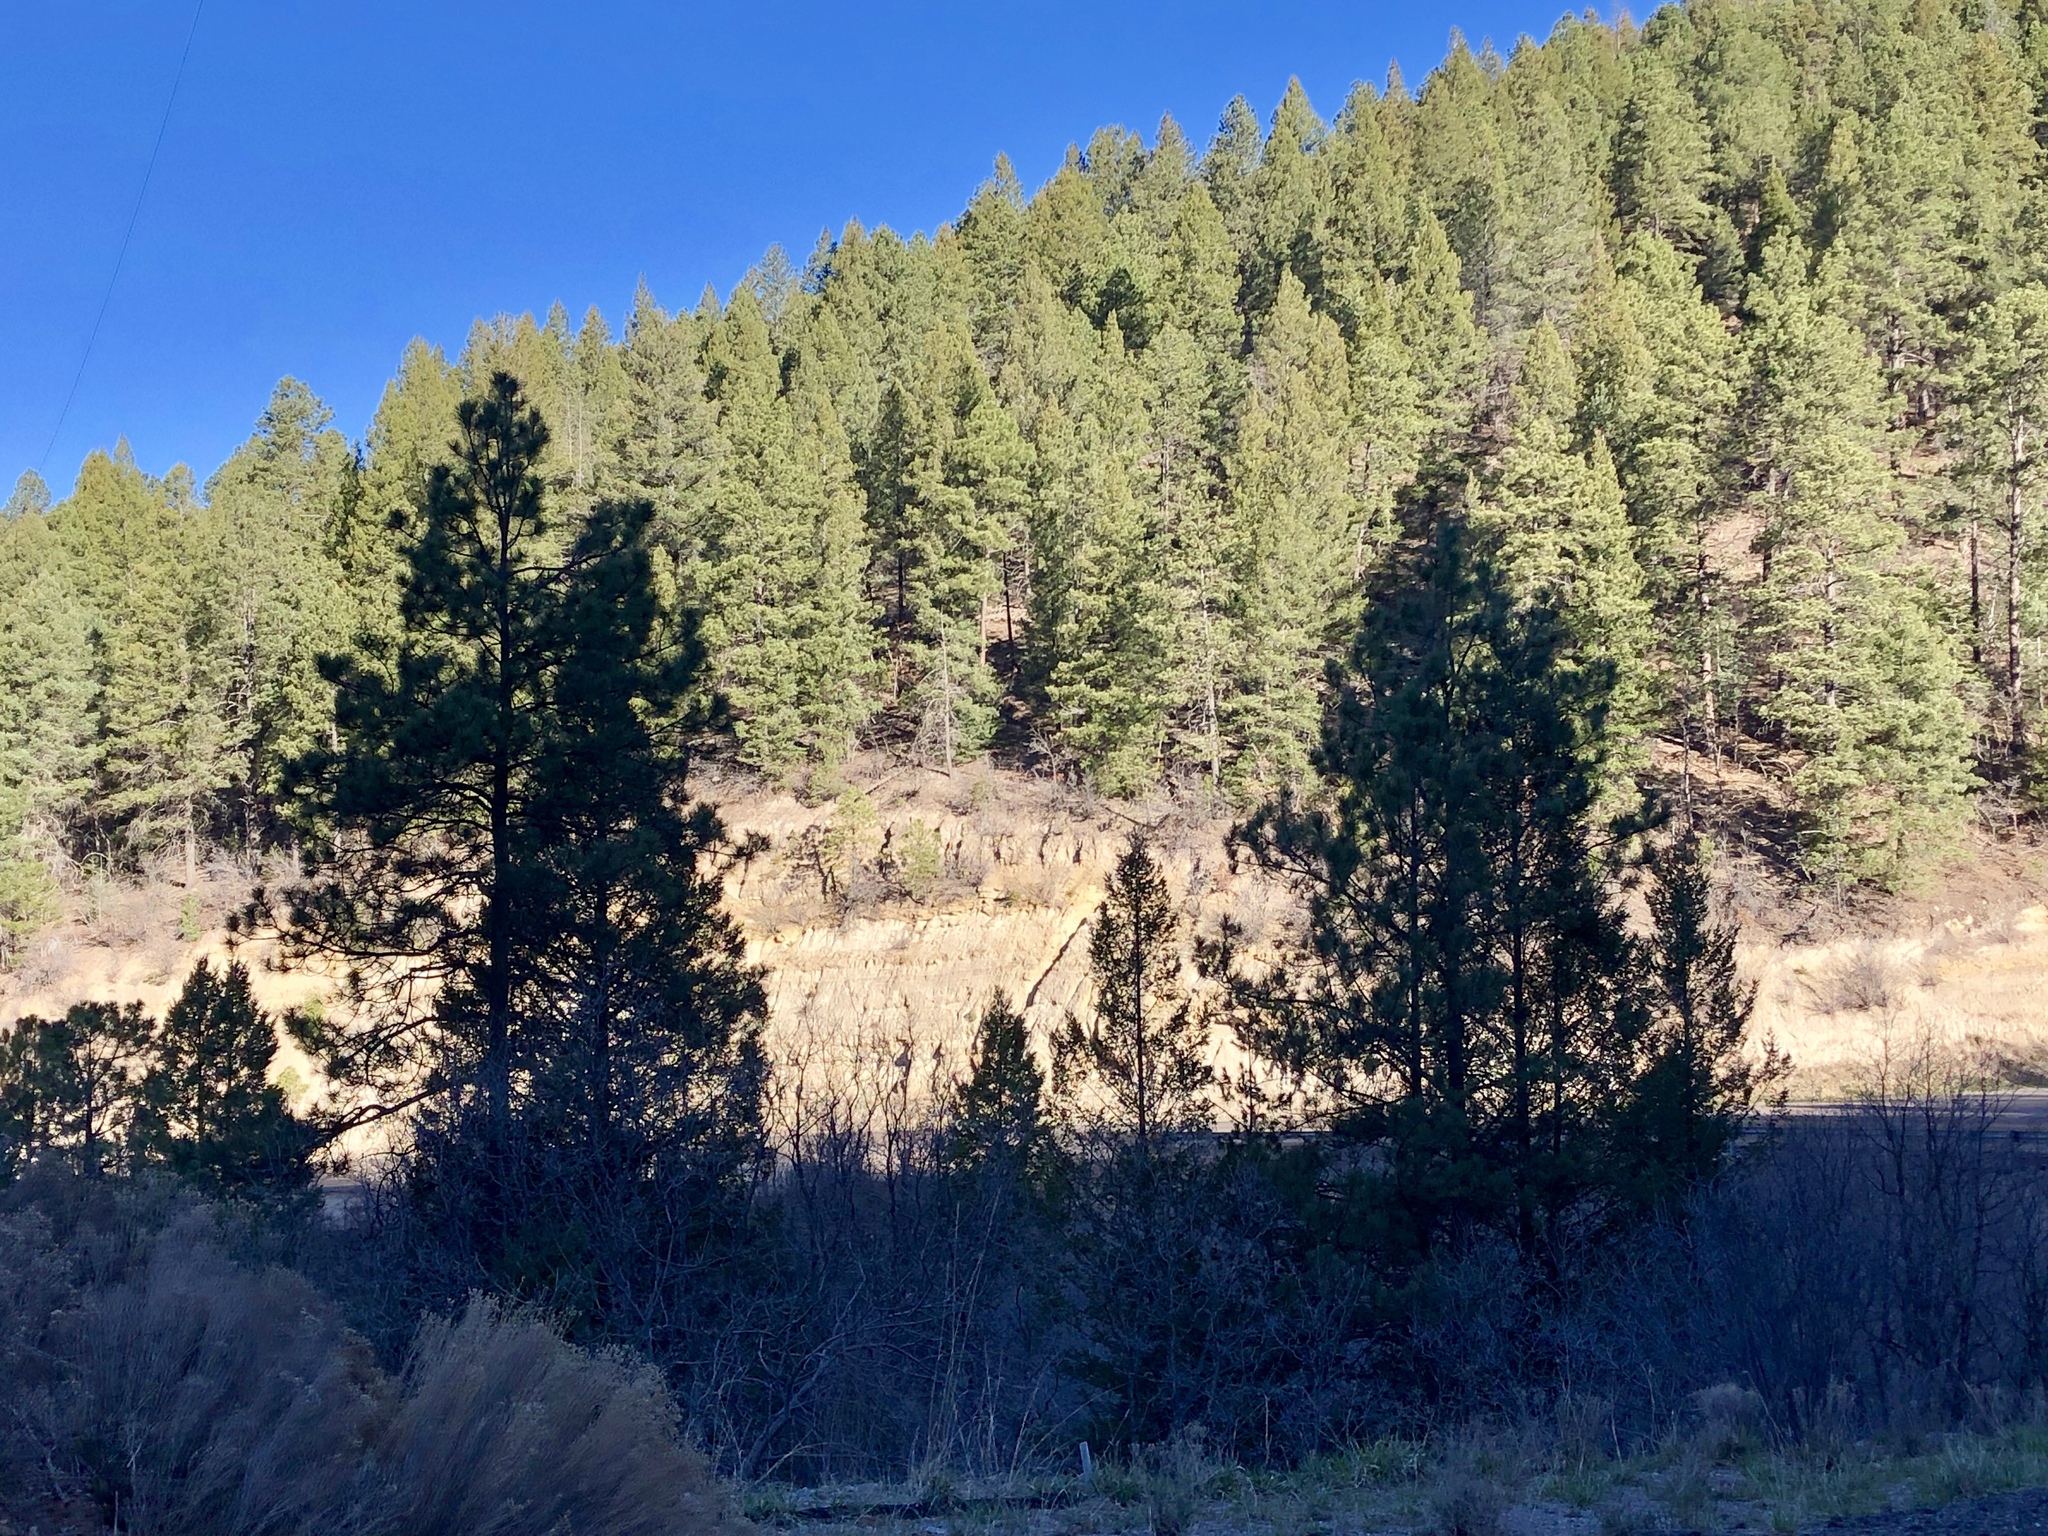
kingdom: Plantae
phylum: Tracheophyta
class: Pinopsida
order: Pinales
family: Pinaceae
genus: Pinus
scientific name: Pinus ponderosa
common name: Western yellow-pine
